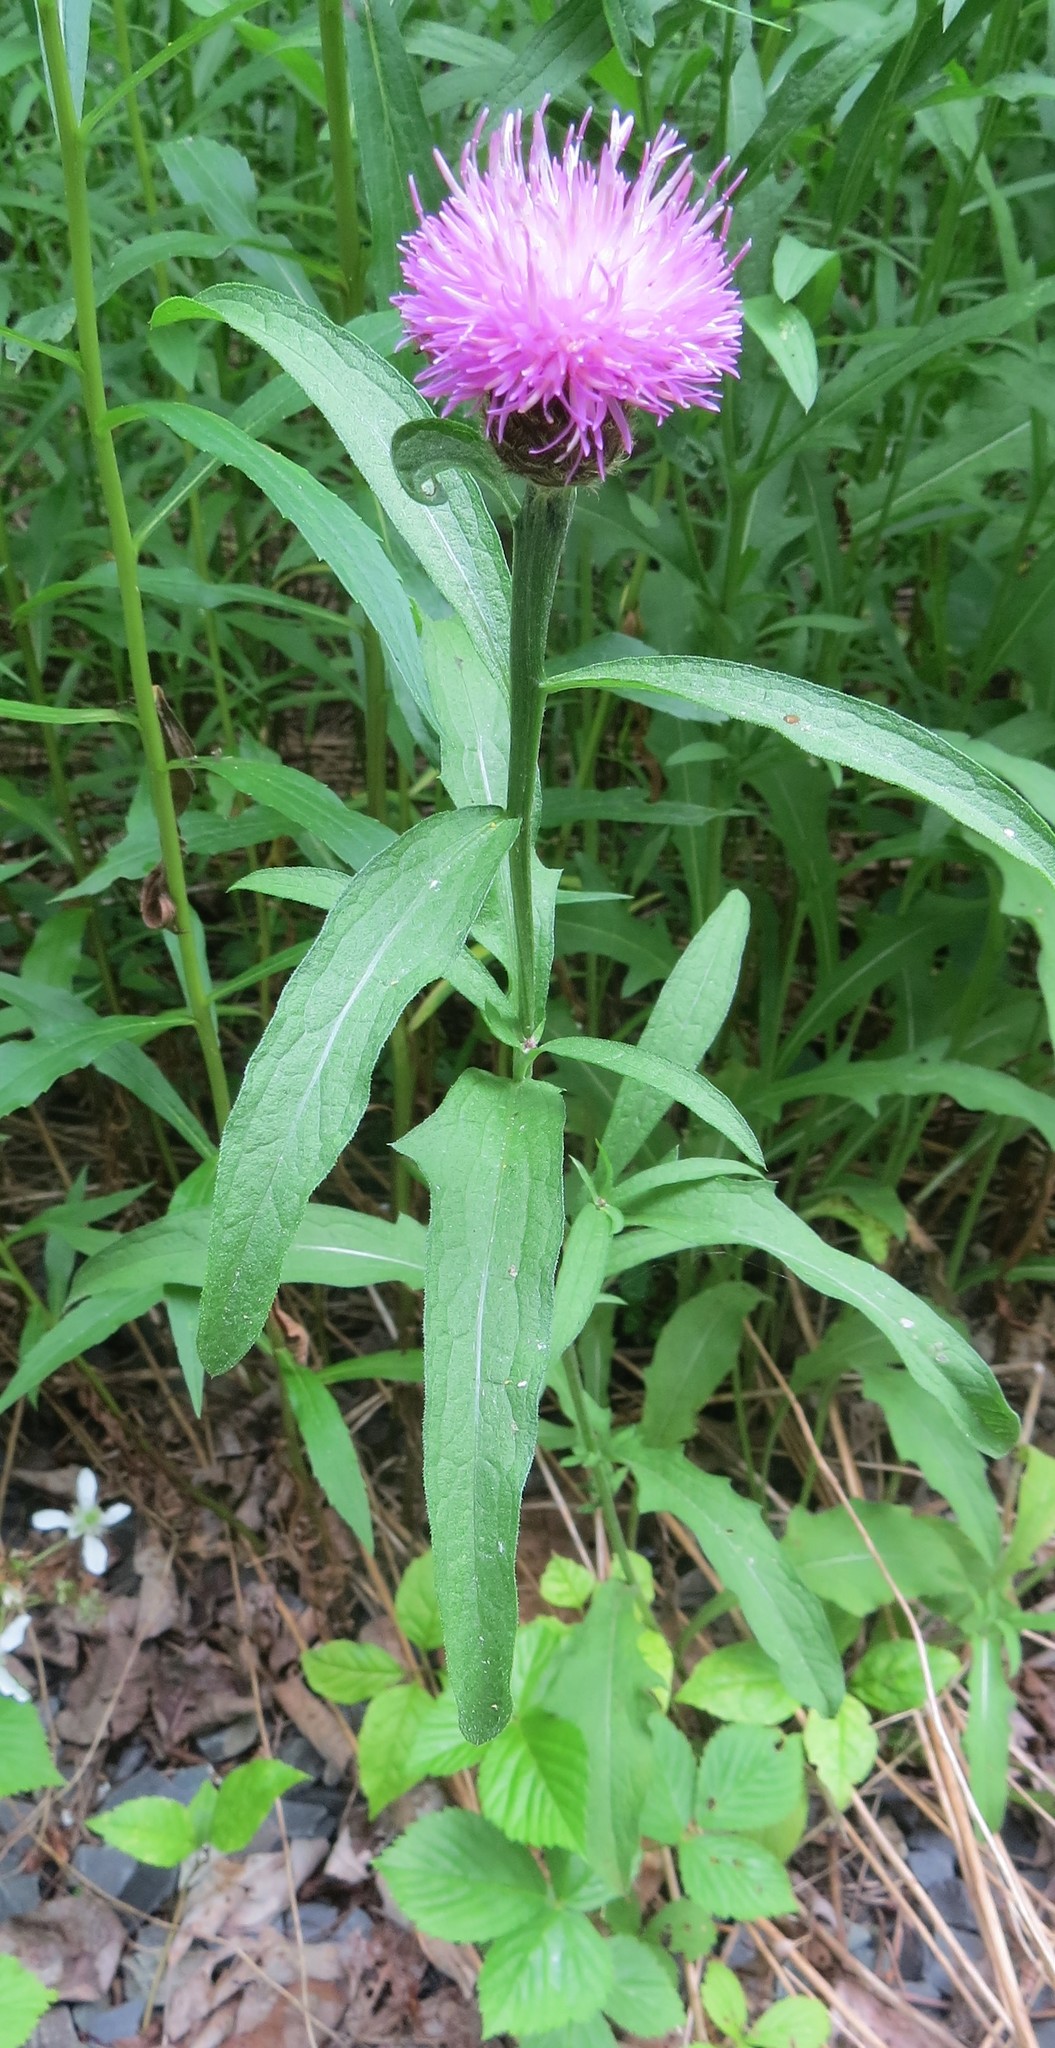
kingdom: Plantae
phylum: Tracheophyta
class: Magnoliopsida
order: Asterales
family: Asteraceae
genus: Centaurea
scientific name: Centaurea nigra
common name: Lesser knapweed
